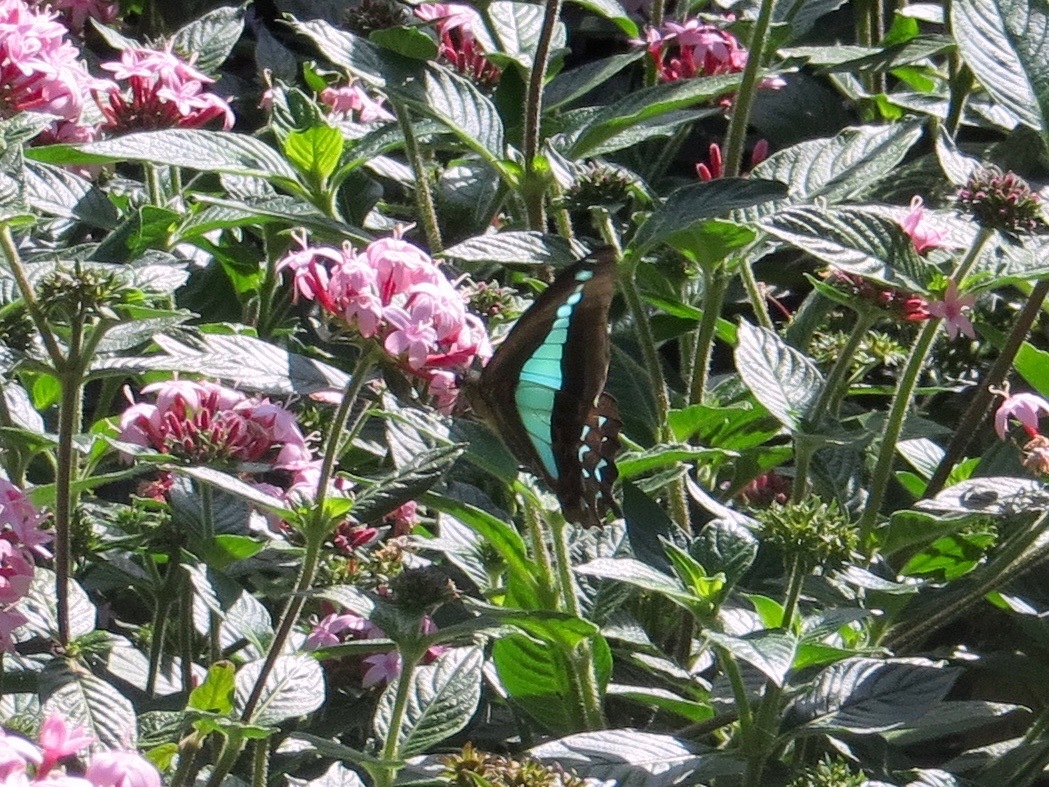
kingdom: Animalia
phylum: Arthropoda
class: Insecta
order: Lepidoptera
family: Papilionidae
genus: Graphium
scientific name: Graphium
